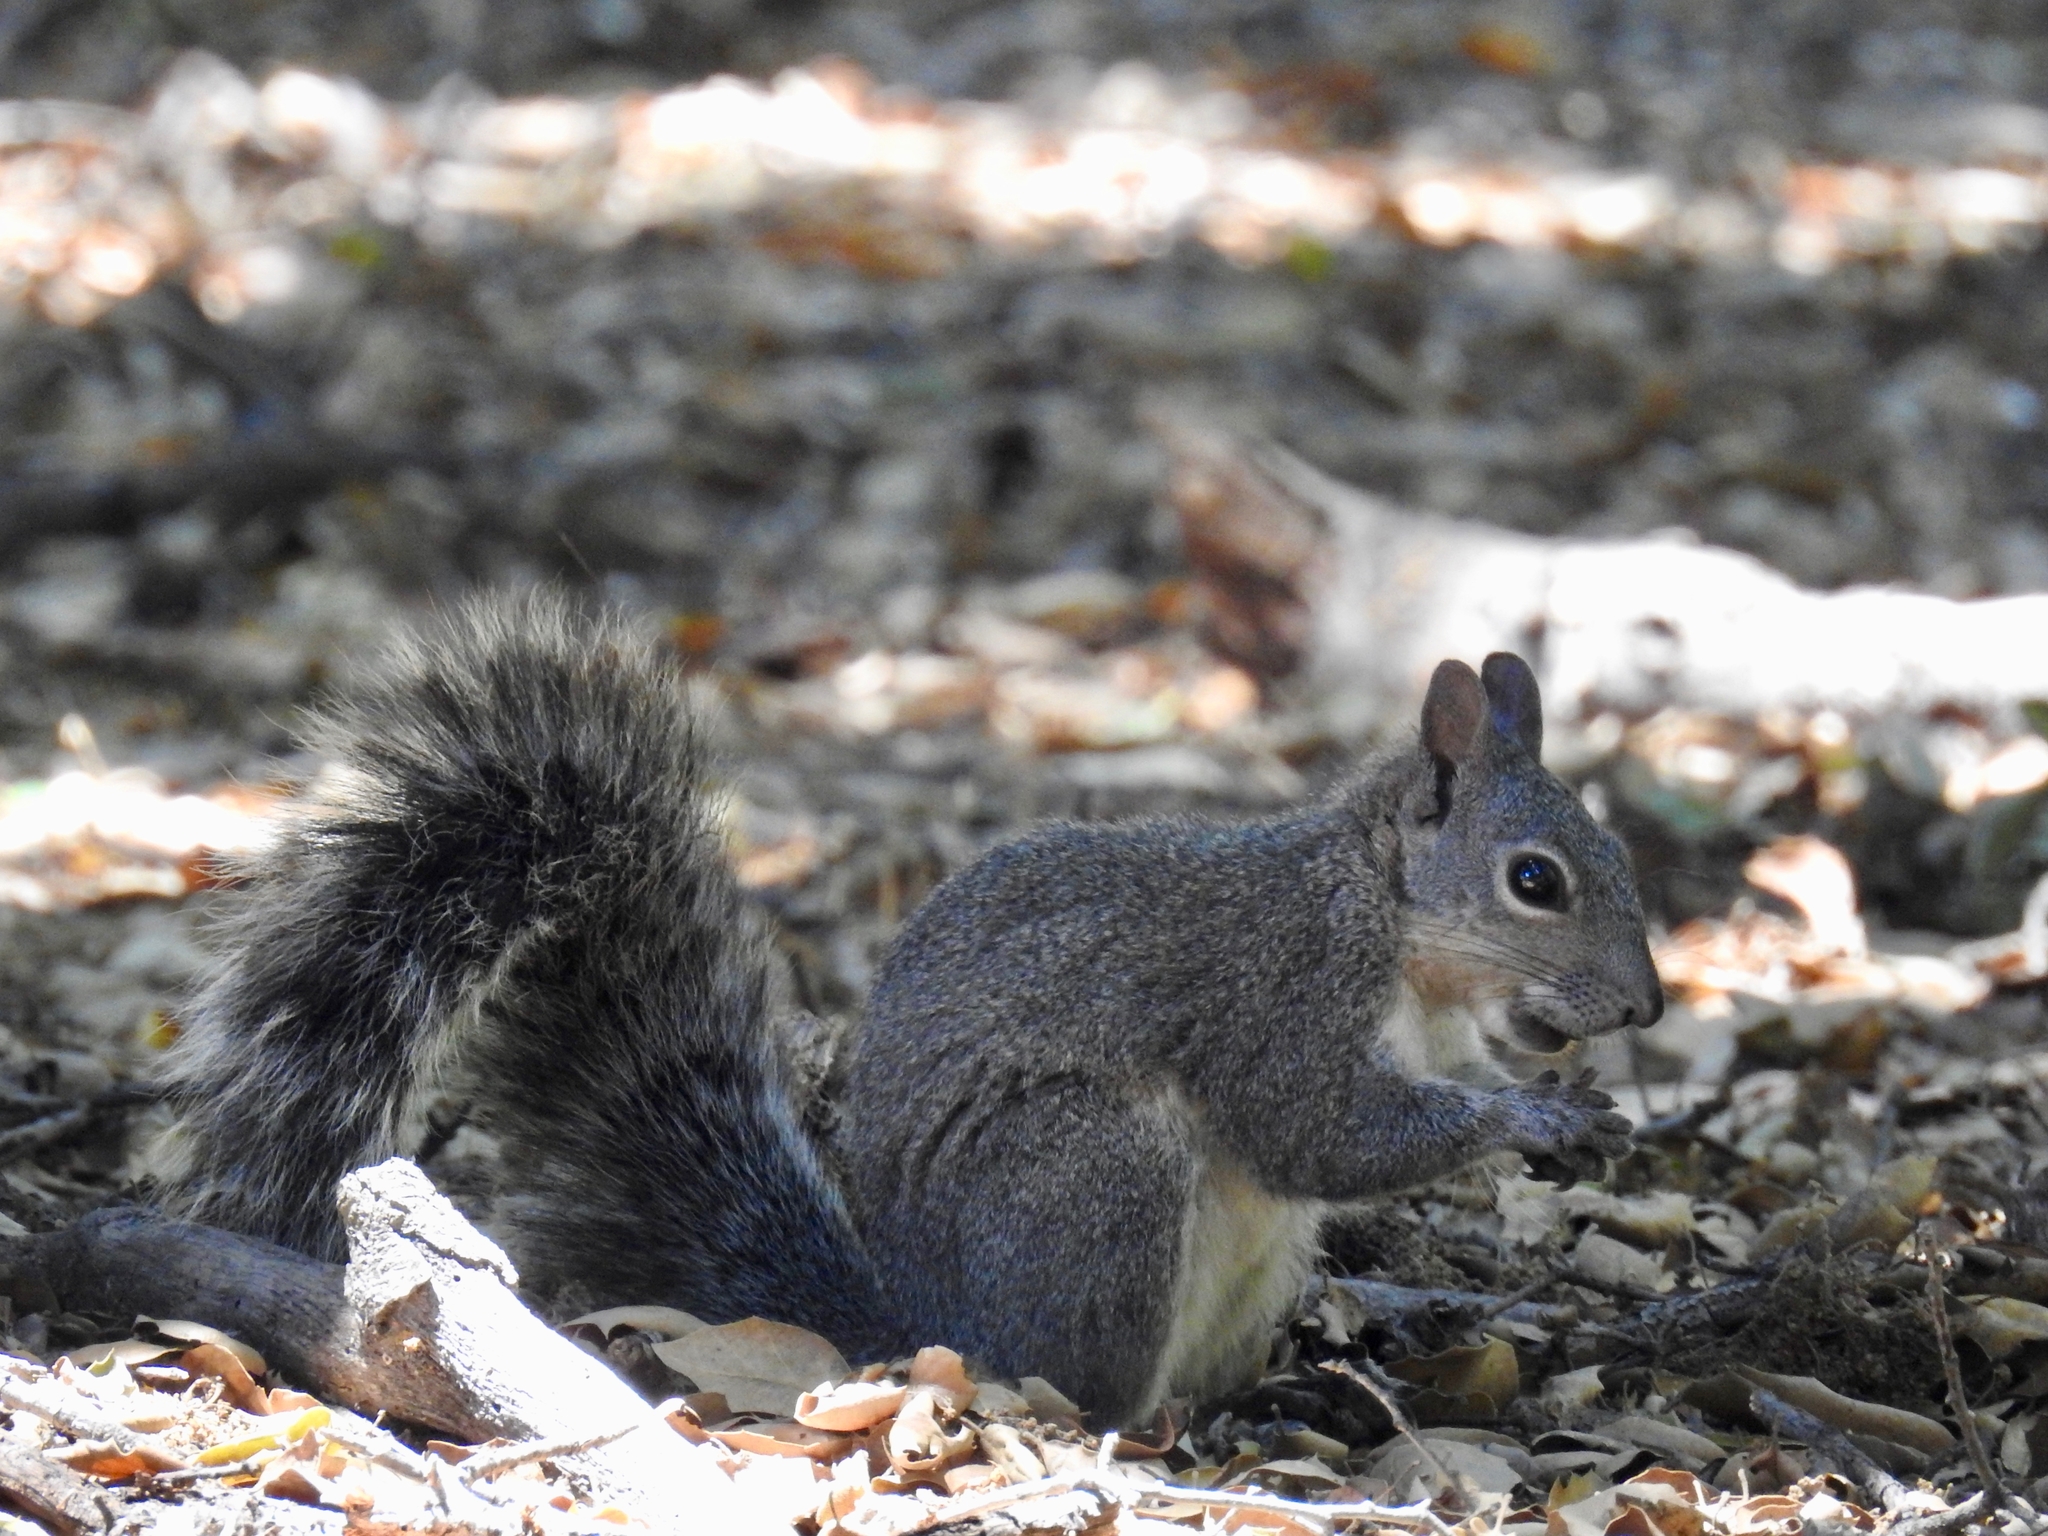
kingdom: Animalia
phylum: Chordata
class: Mammalia
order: Rodentia
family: Sciuridae
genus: Sciurus
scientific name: Sciurus griseus
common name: Western gray squirrel
